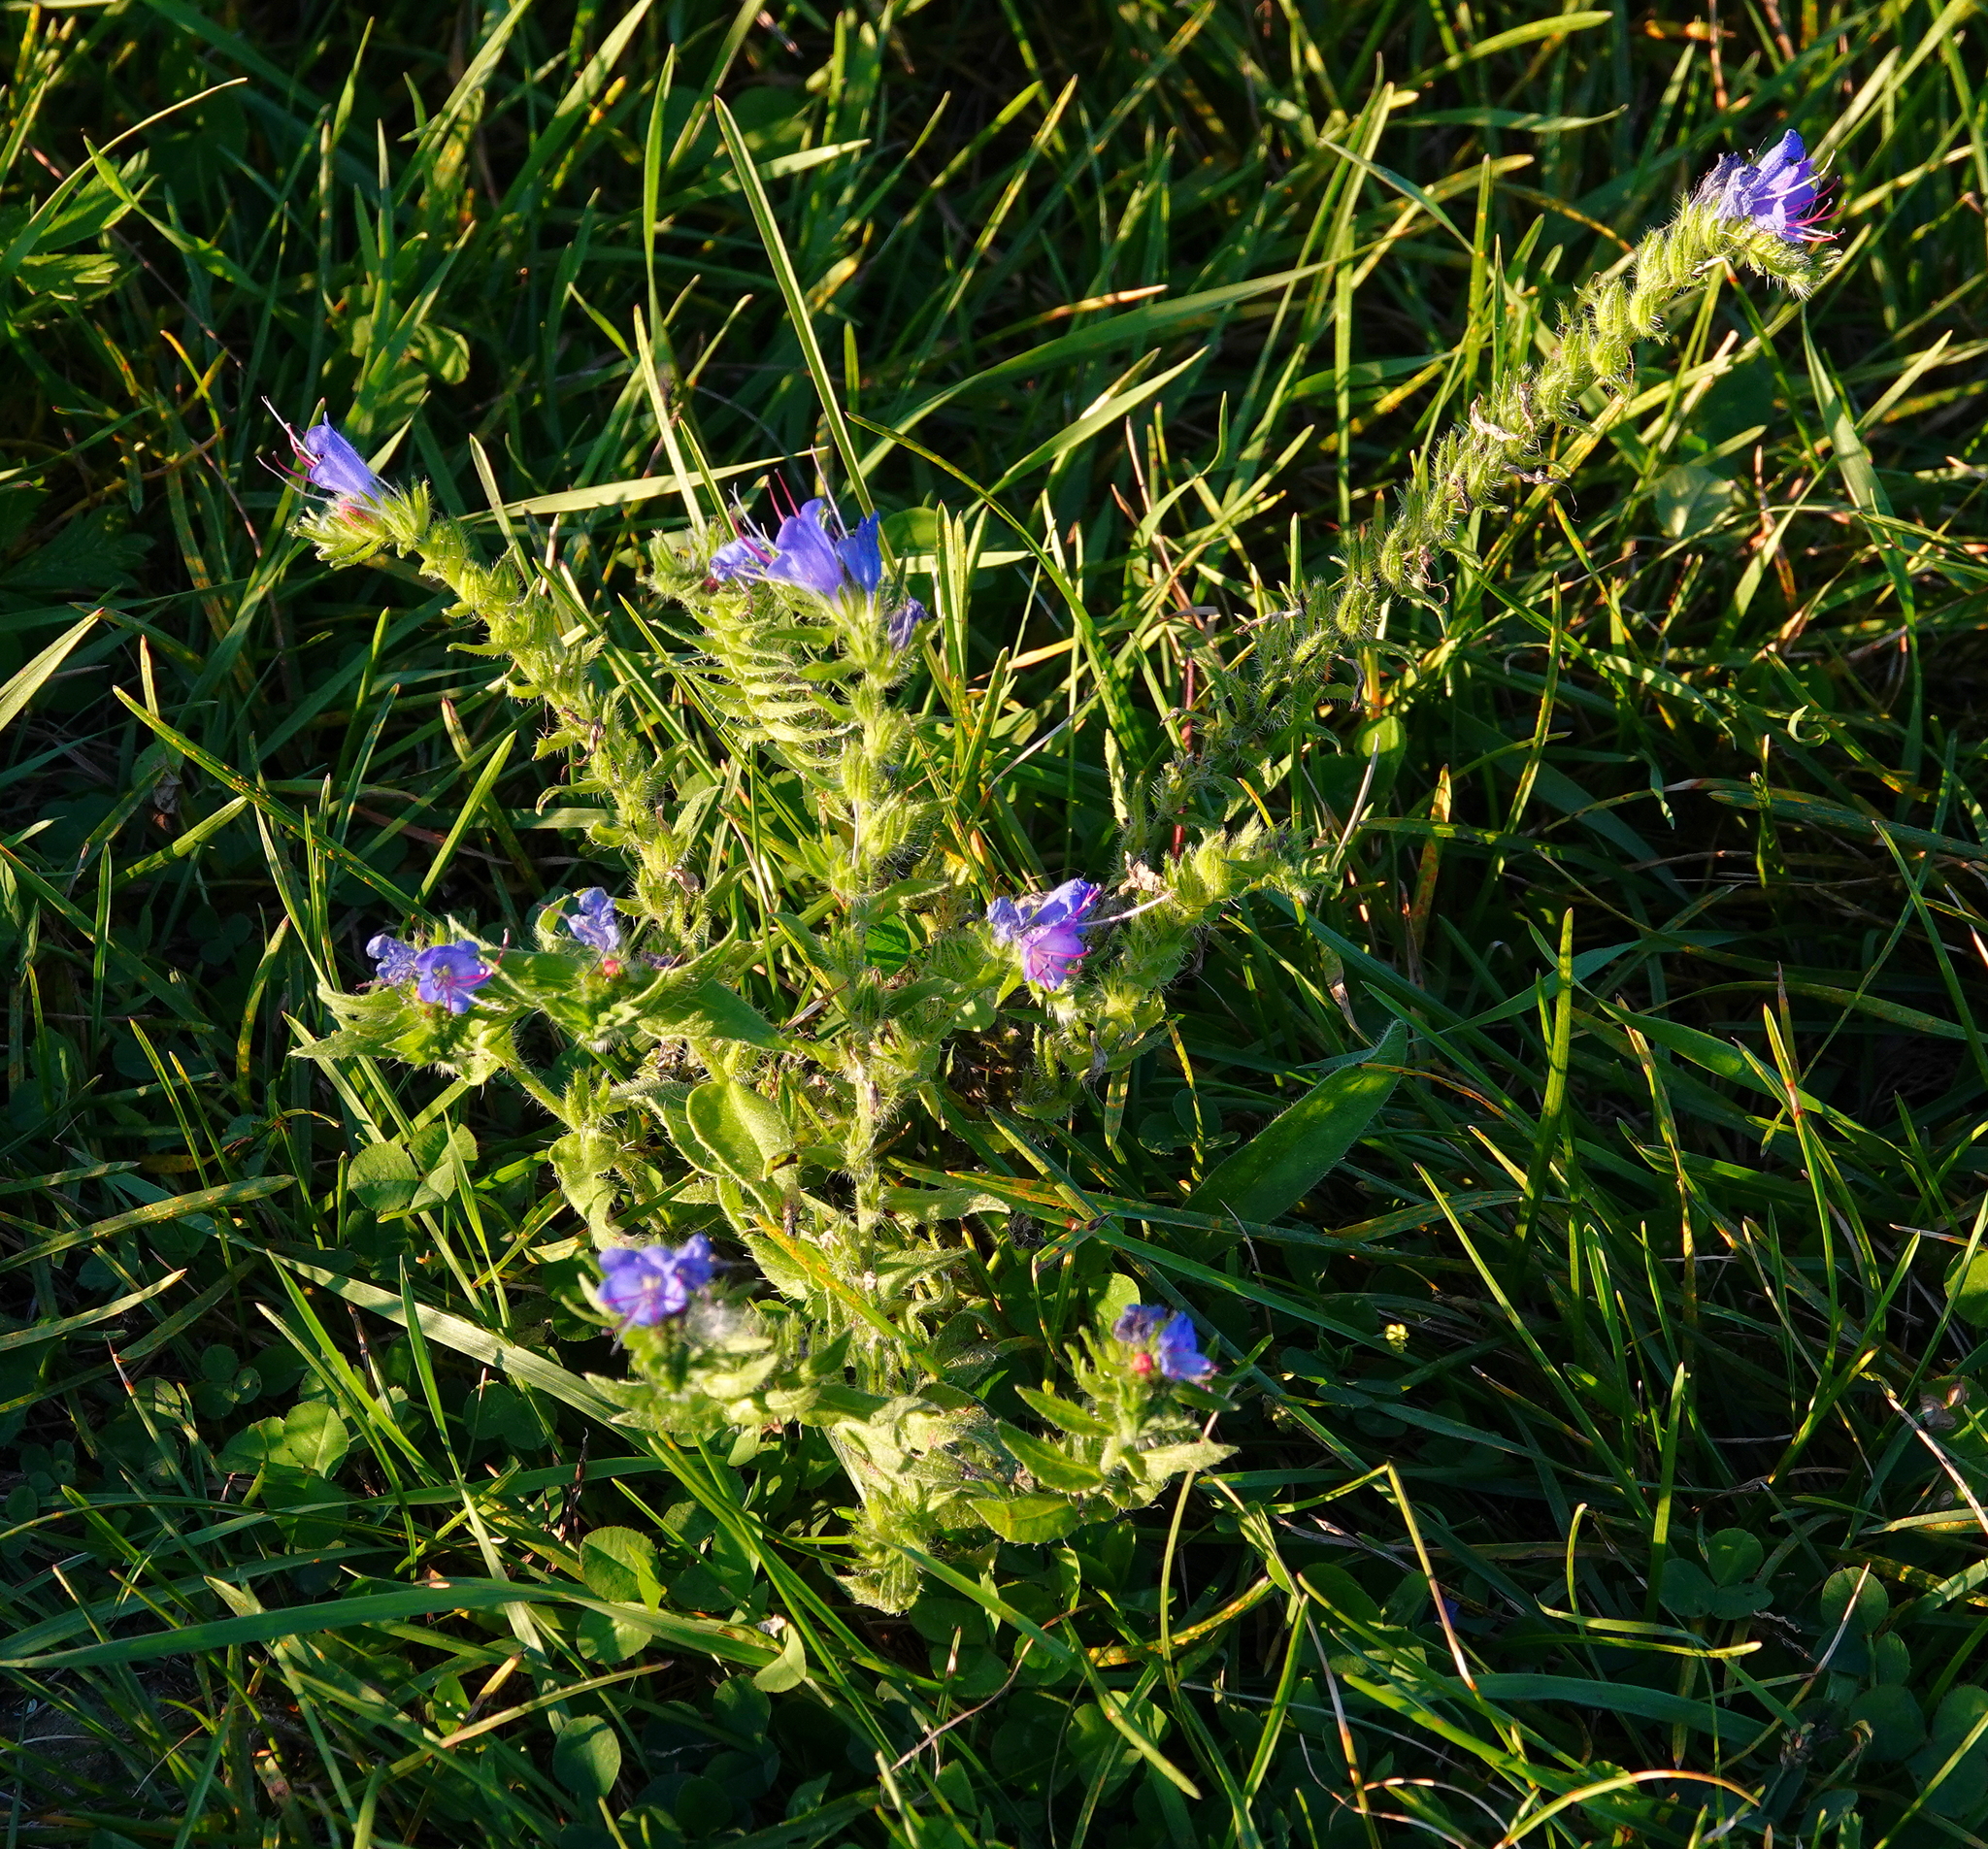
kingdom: Plantae
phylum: Tracheophyta
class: Magnoliopsida
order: Boraginales
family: Boraginaceae
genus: Echium
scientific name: Echium vulgare
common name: Common viper's bugloss
